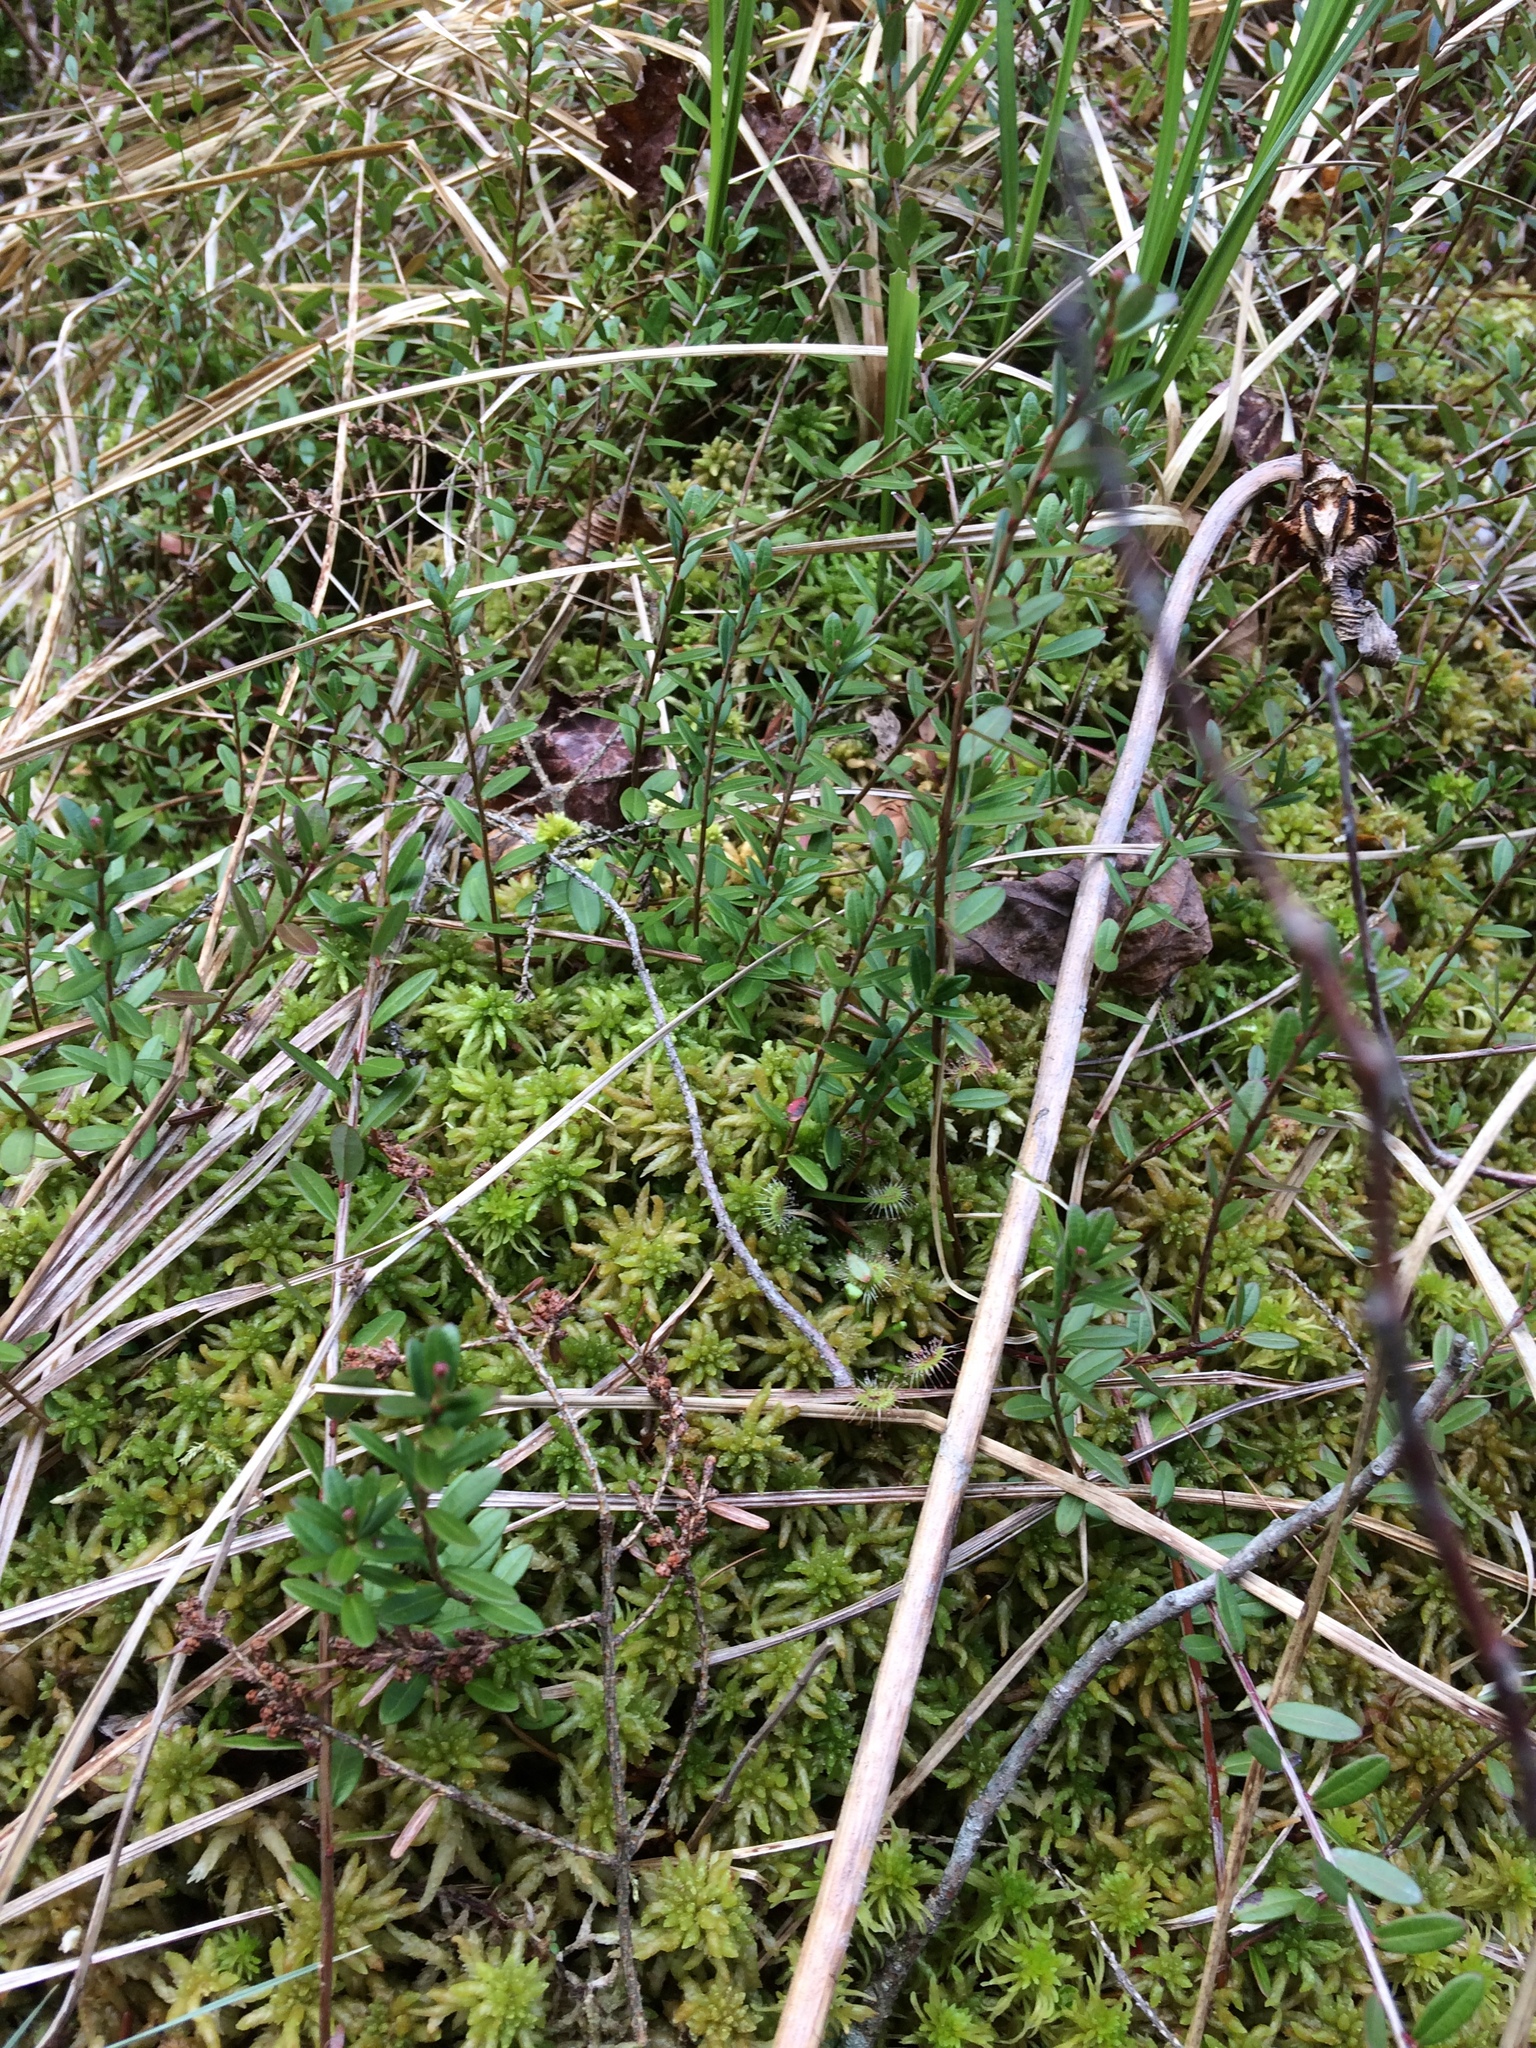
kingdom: Plantae
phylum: Tracheophyta
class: Magnoliopsida
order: Ericales
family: Ericaceae
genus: Vaccinium
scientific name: Vaccinium macrocarpon
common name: American cranberry
